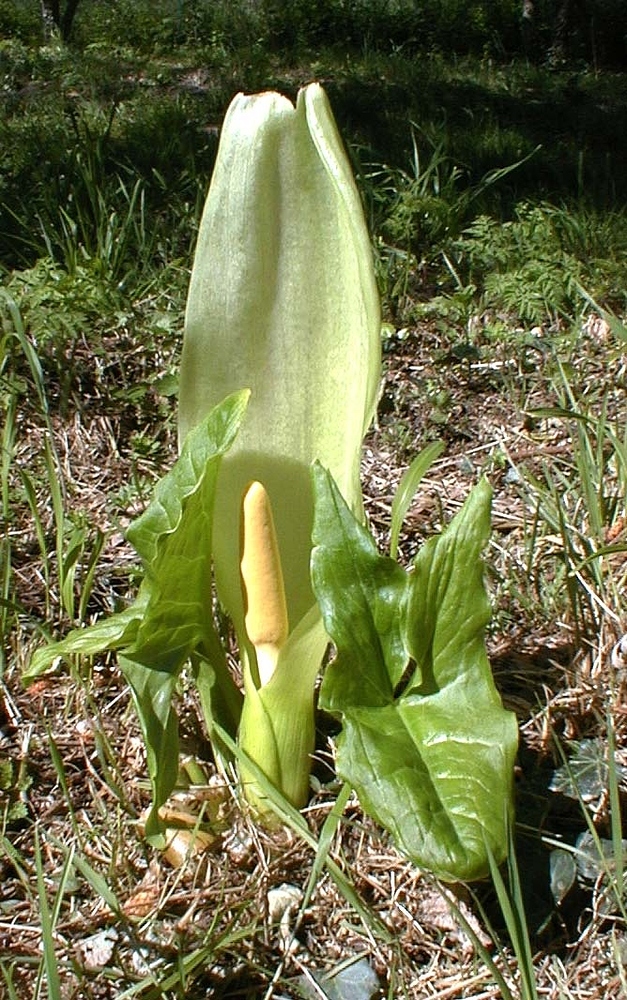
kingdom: Plantae
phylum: Tracheophyta
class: Liliopsida
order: Alismatales
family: Araceae
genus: Arum
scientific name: Arum italicum
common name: Italian lords-and-ladies
